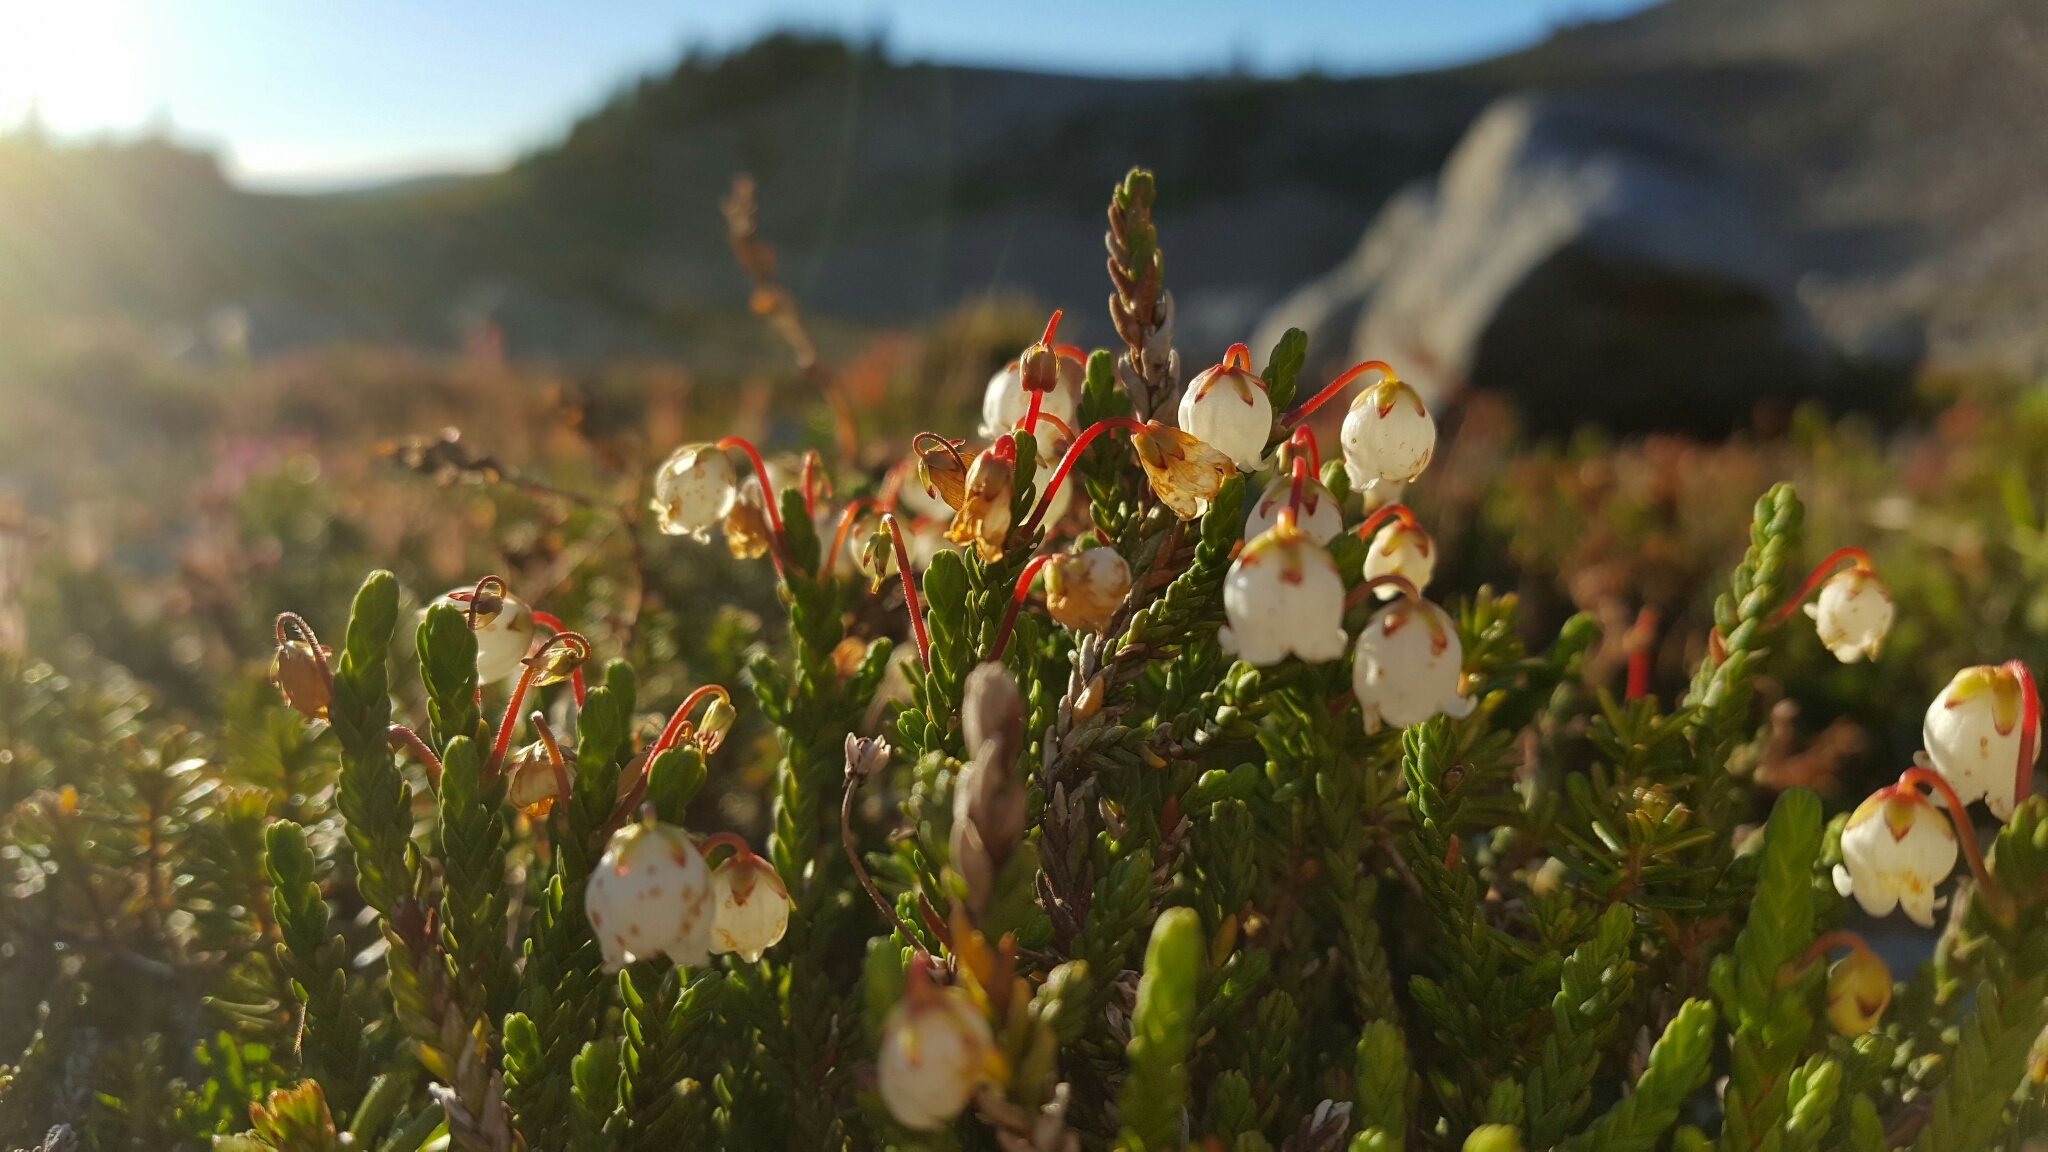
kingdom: Plantae
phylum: Tracheophyta
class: Magnoliopsida
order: Ericales
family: Ericaceae
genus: Cassiope
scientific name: Cassiope mertensiana
